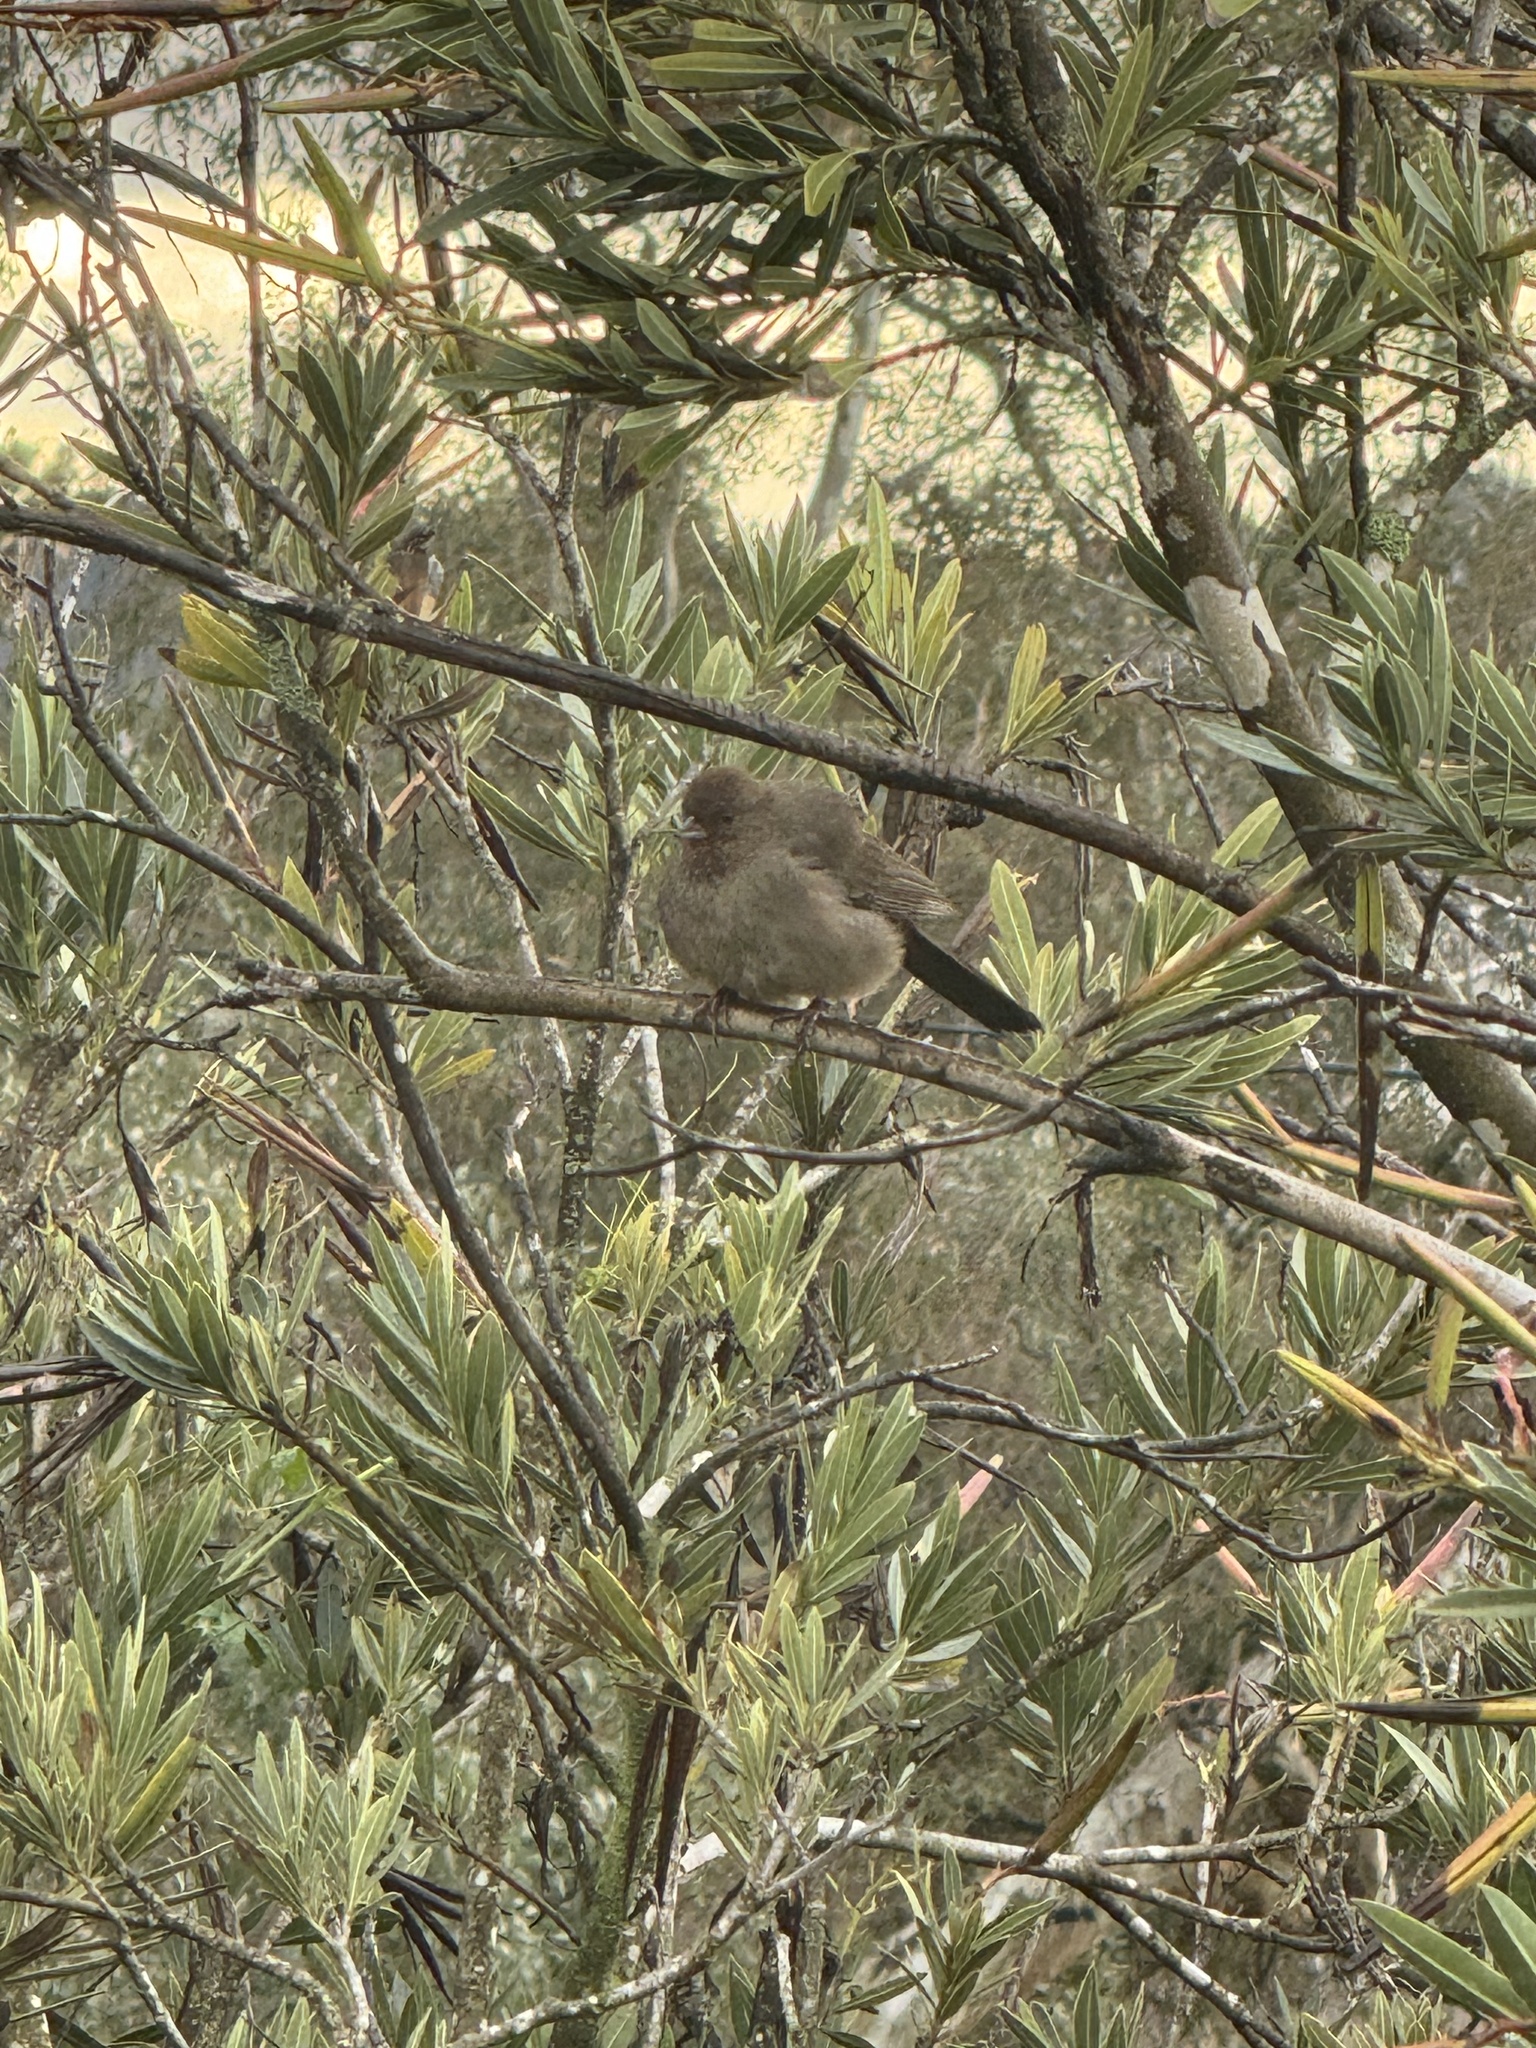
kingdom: Animalia
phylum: Chordata
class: Aves
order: Passeriformes
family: Passerellidae
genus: Melozone
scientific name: Melozone crissalis
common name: California towhee
